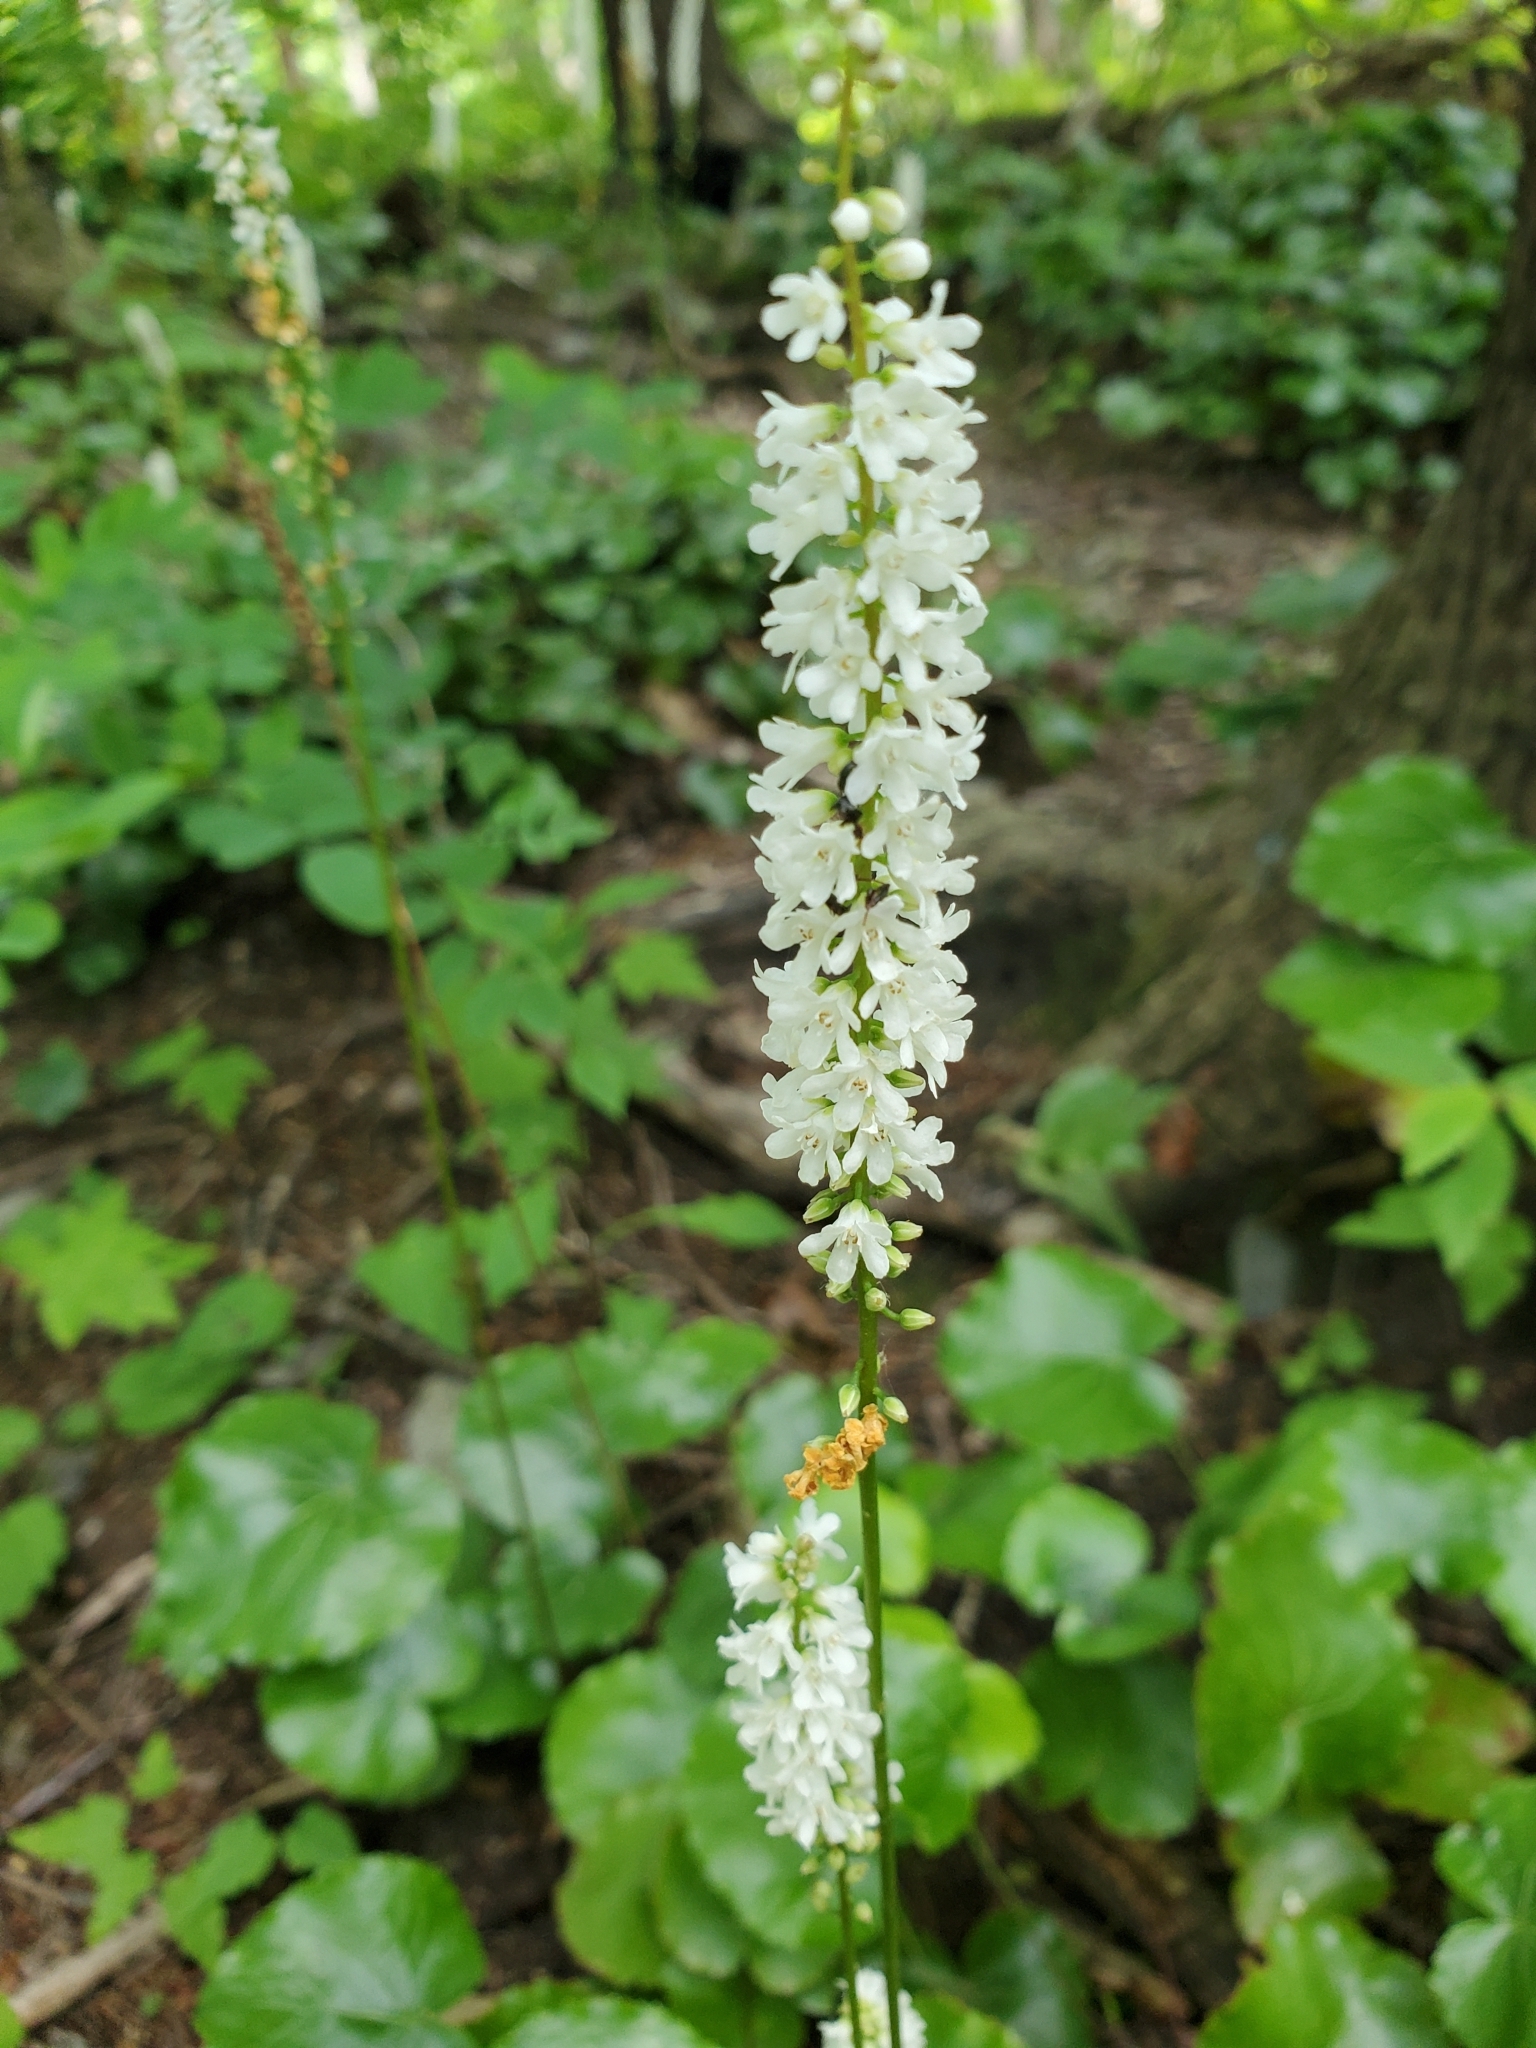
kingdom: Plantae
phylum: Tracheophyta
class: Magnoliopsida
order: Ericales
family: Diapensiaceae
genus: Galax
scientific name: Galax urceolata
